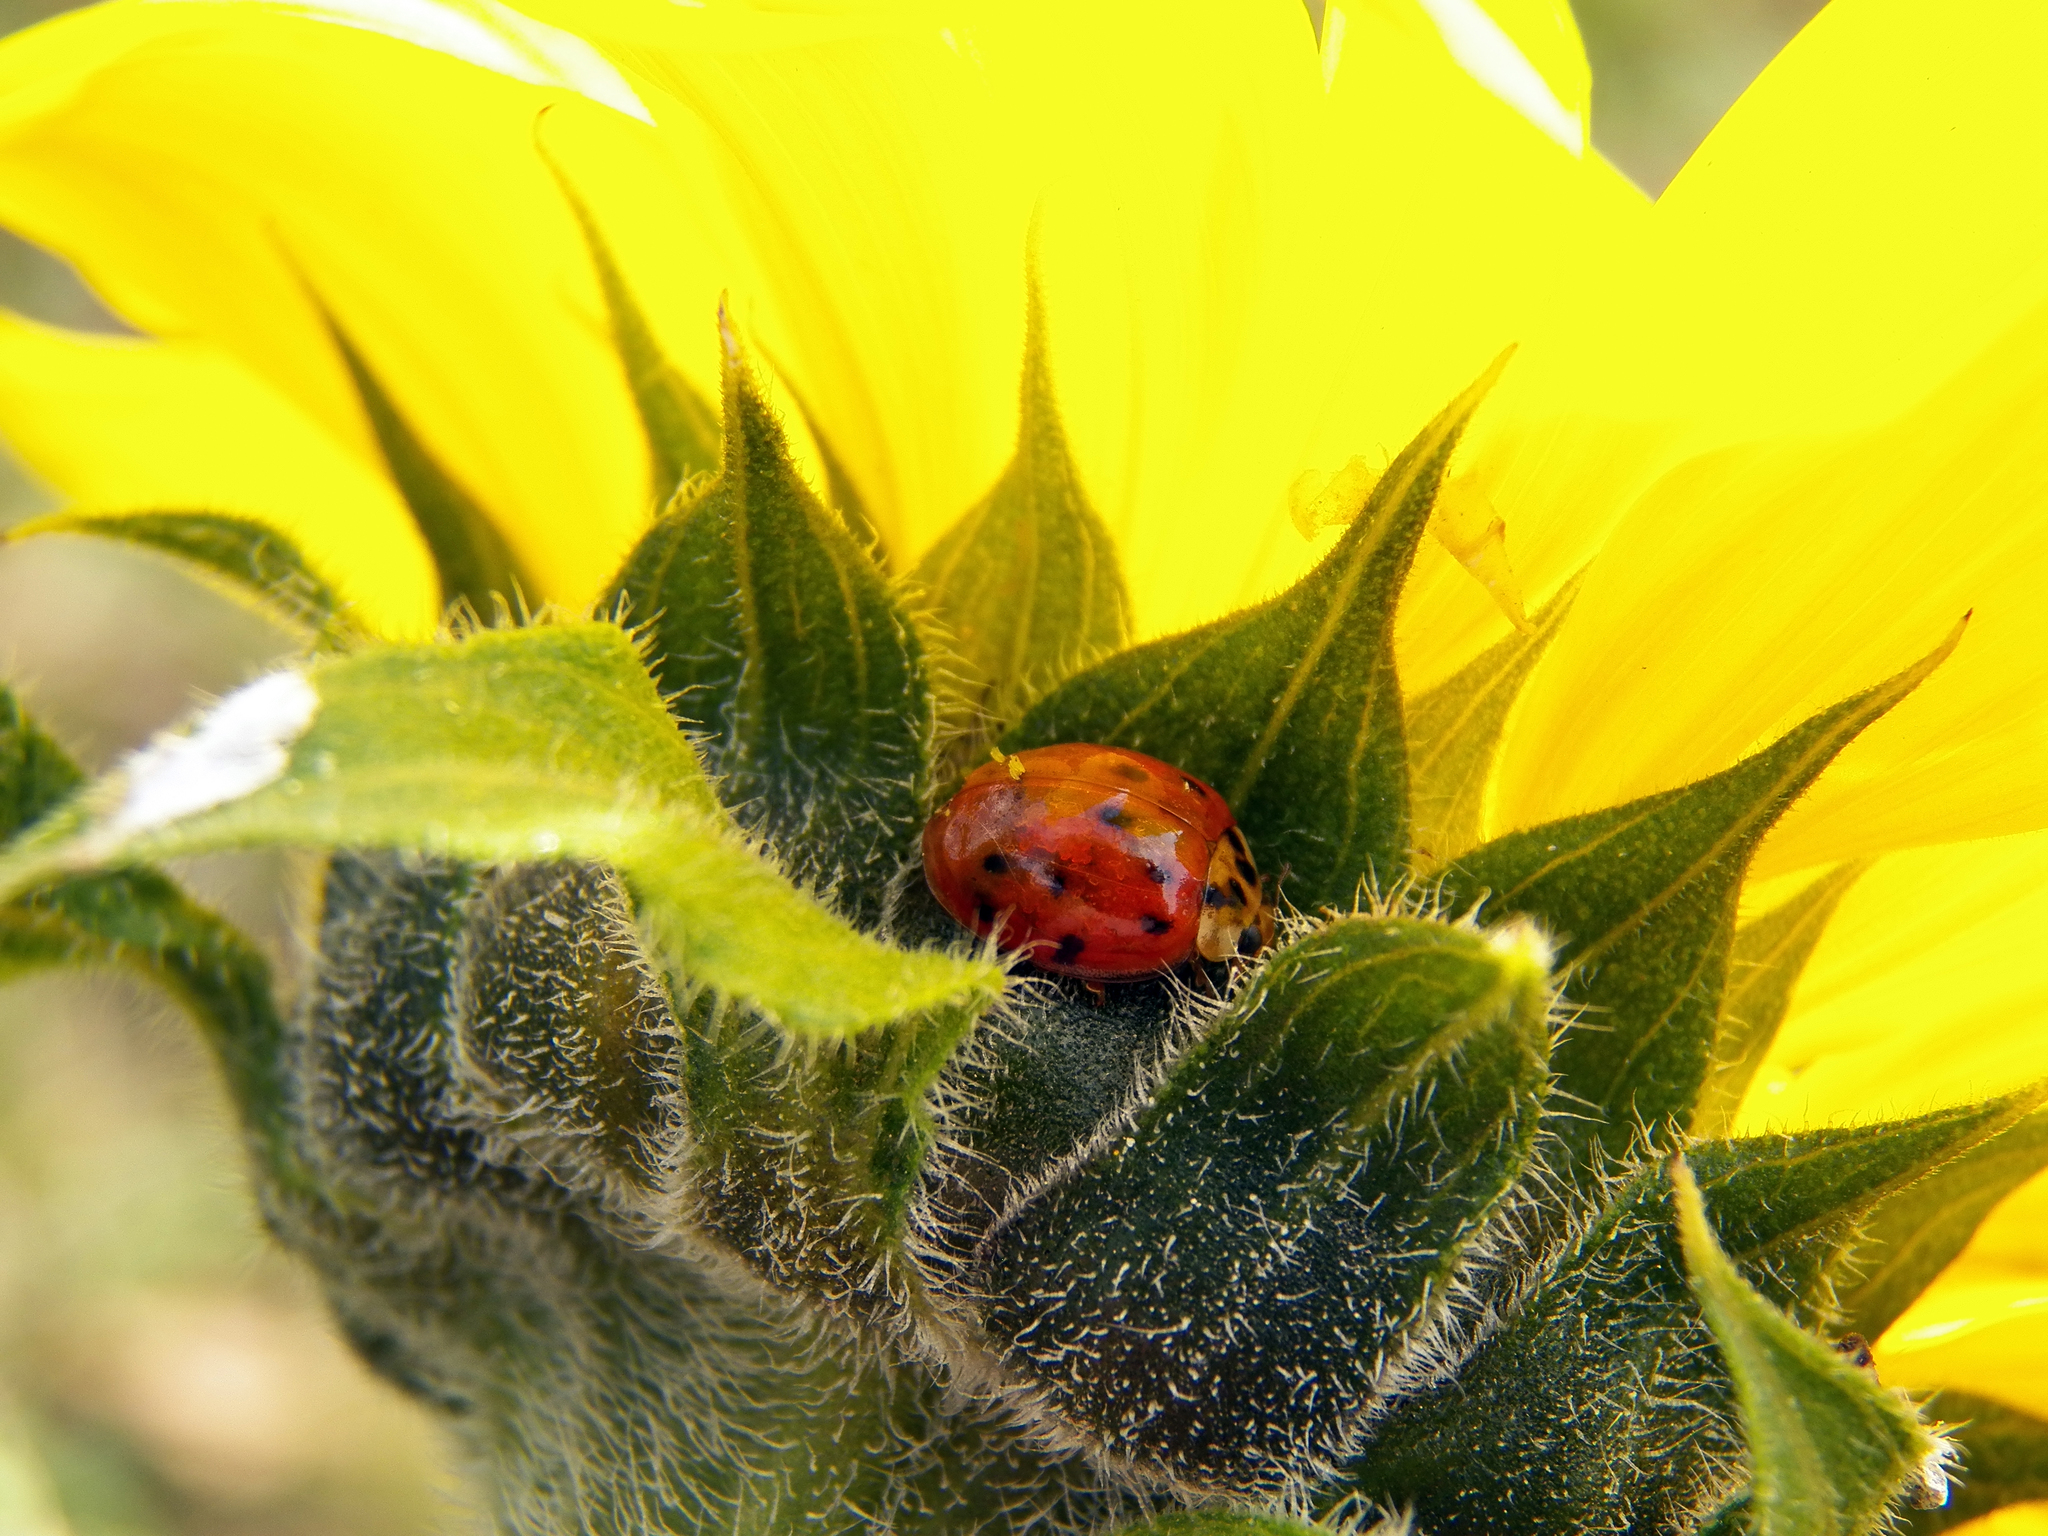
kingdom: Animalia
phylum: Arthropoda
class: Insecta
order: Coleoptera
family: Coccinellidae
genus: Harmonia
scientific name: Harmonia axyridis
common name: Harlequin ladybird
